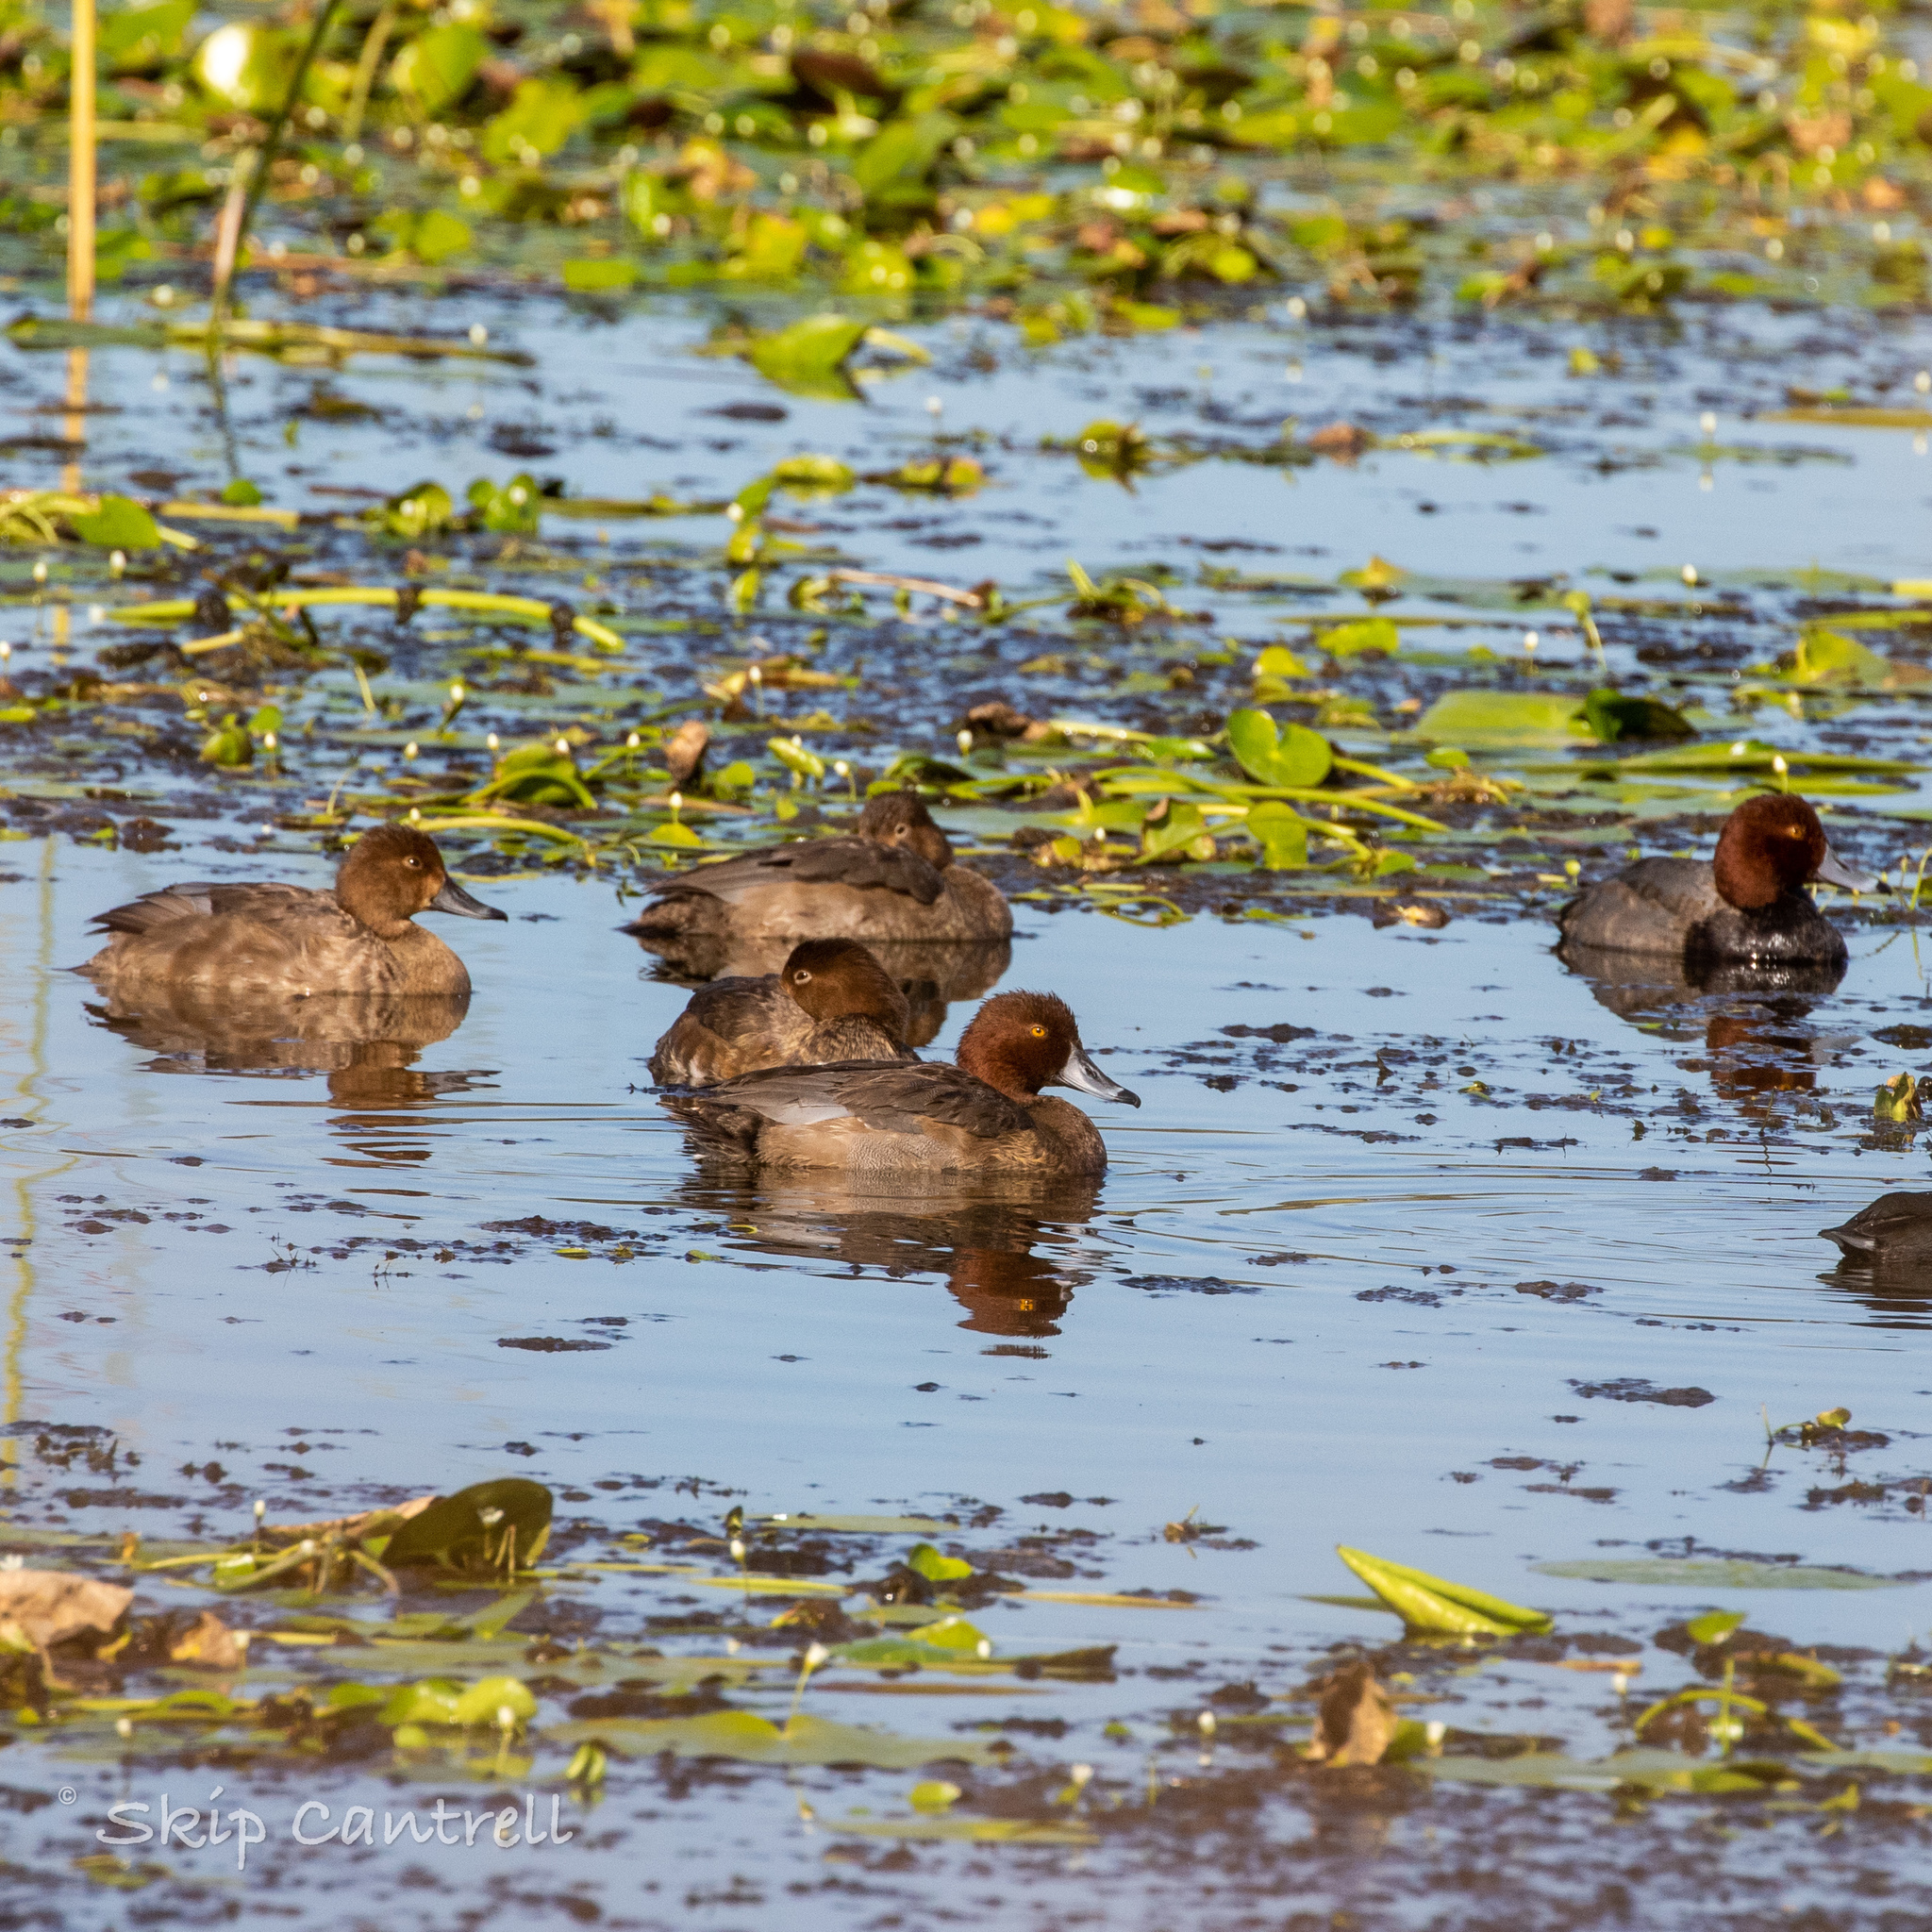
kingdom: Animalia
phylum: Chordata
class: Aves
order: Anseriformes
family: Anatidae
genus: Aythya
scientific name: Aythya americana
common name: Redhead
